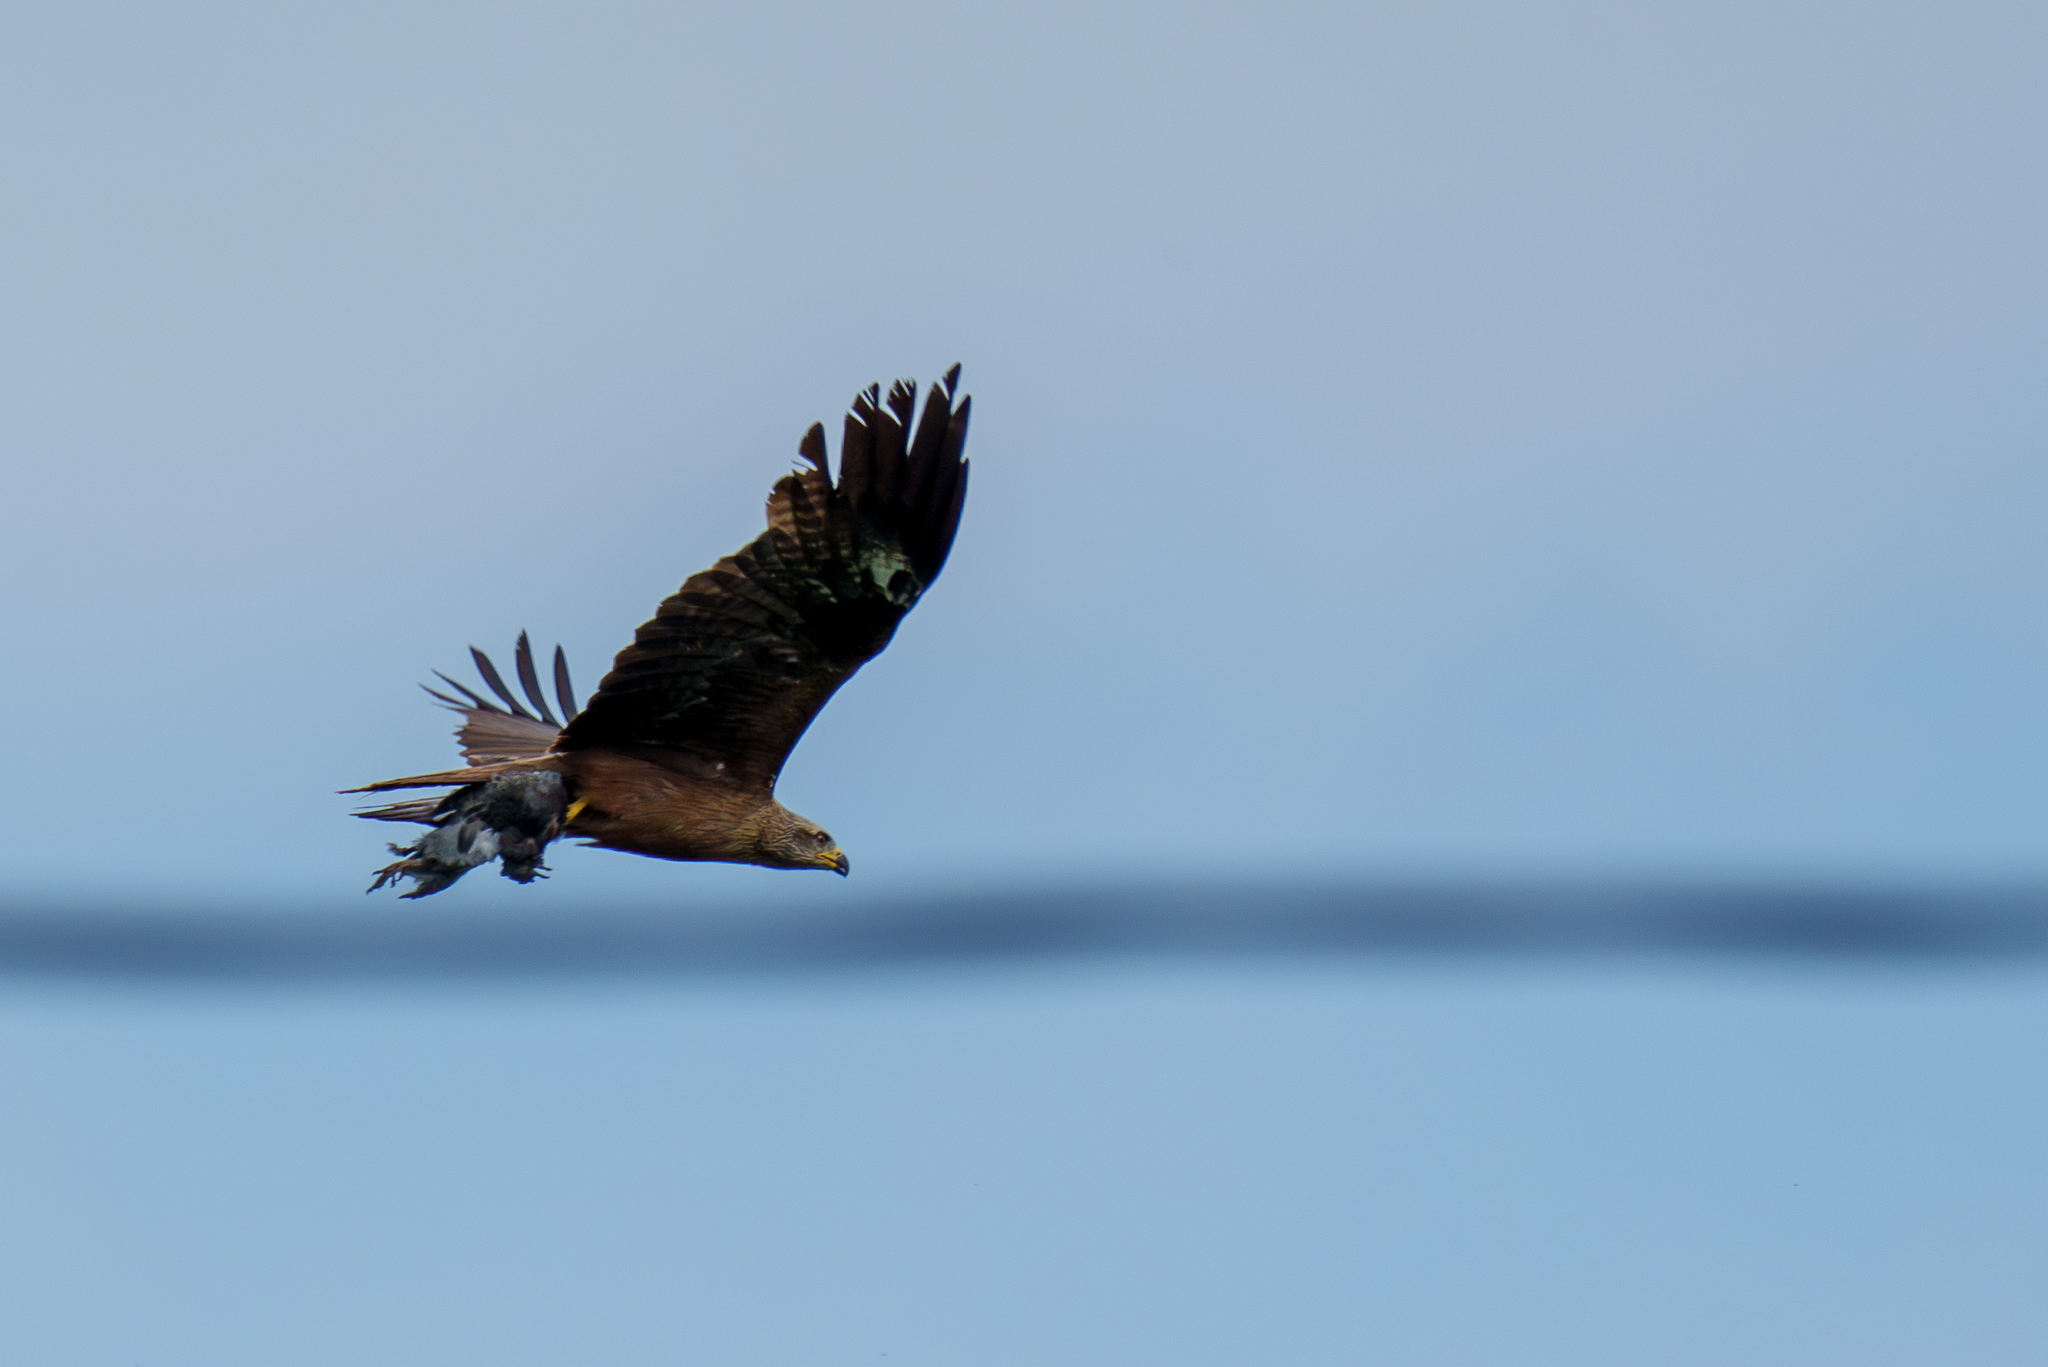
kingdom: Animalia
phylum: Chordata
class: Aves
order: Accipitriformes
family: Accipitridae
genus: Milvus
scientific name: Milvus migrans
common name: Black kite
